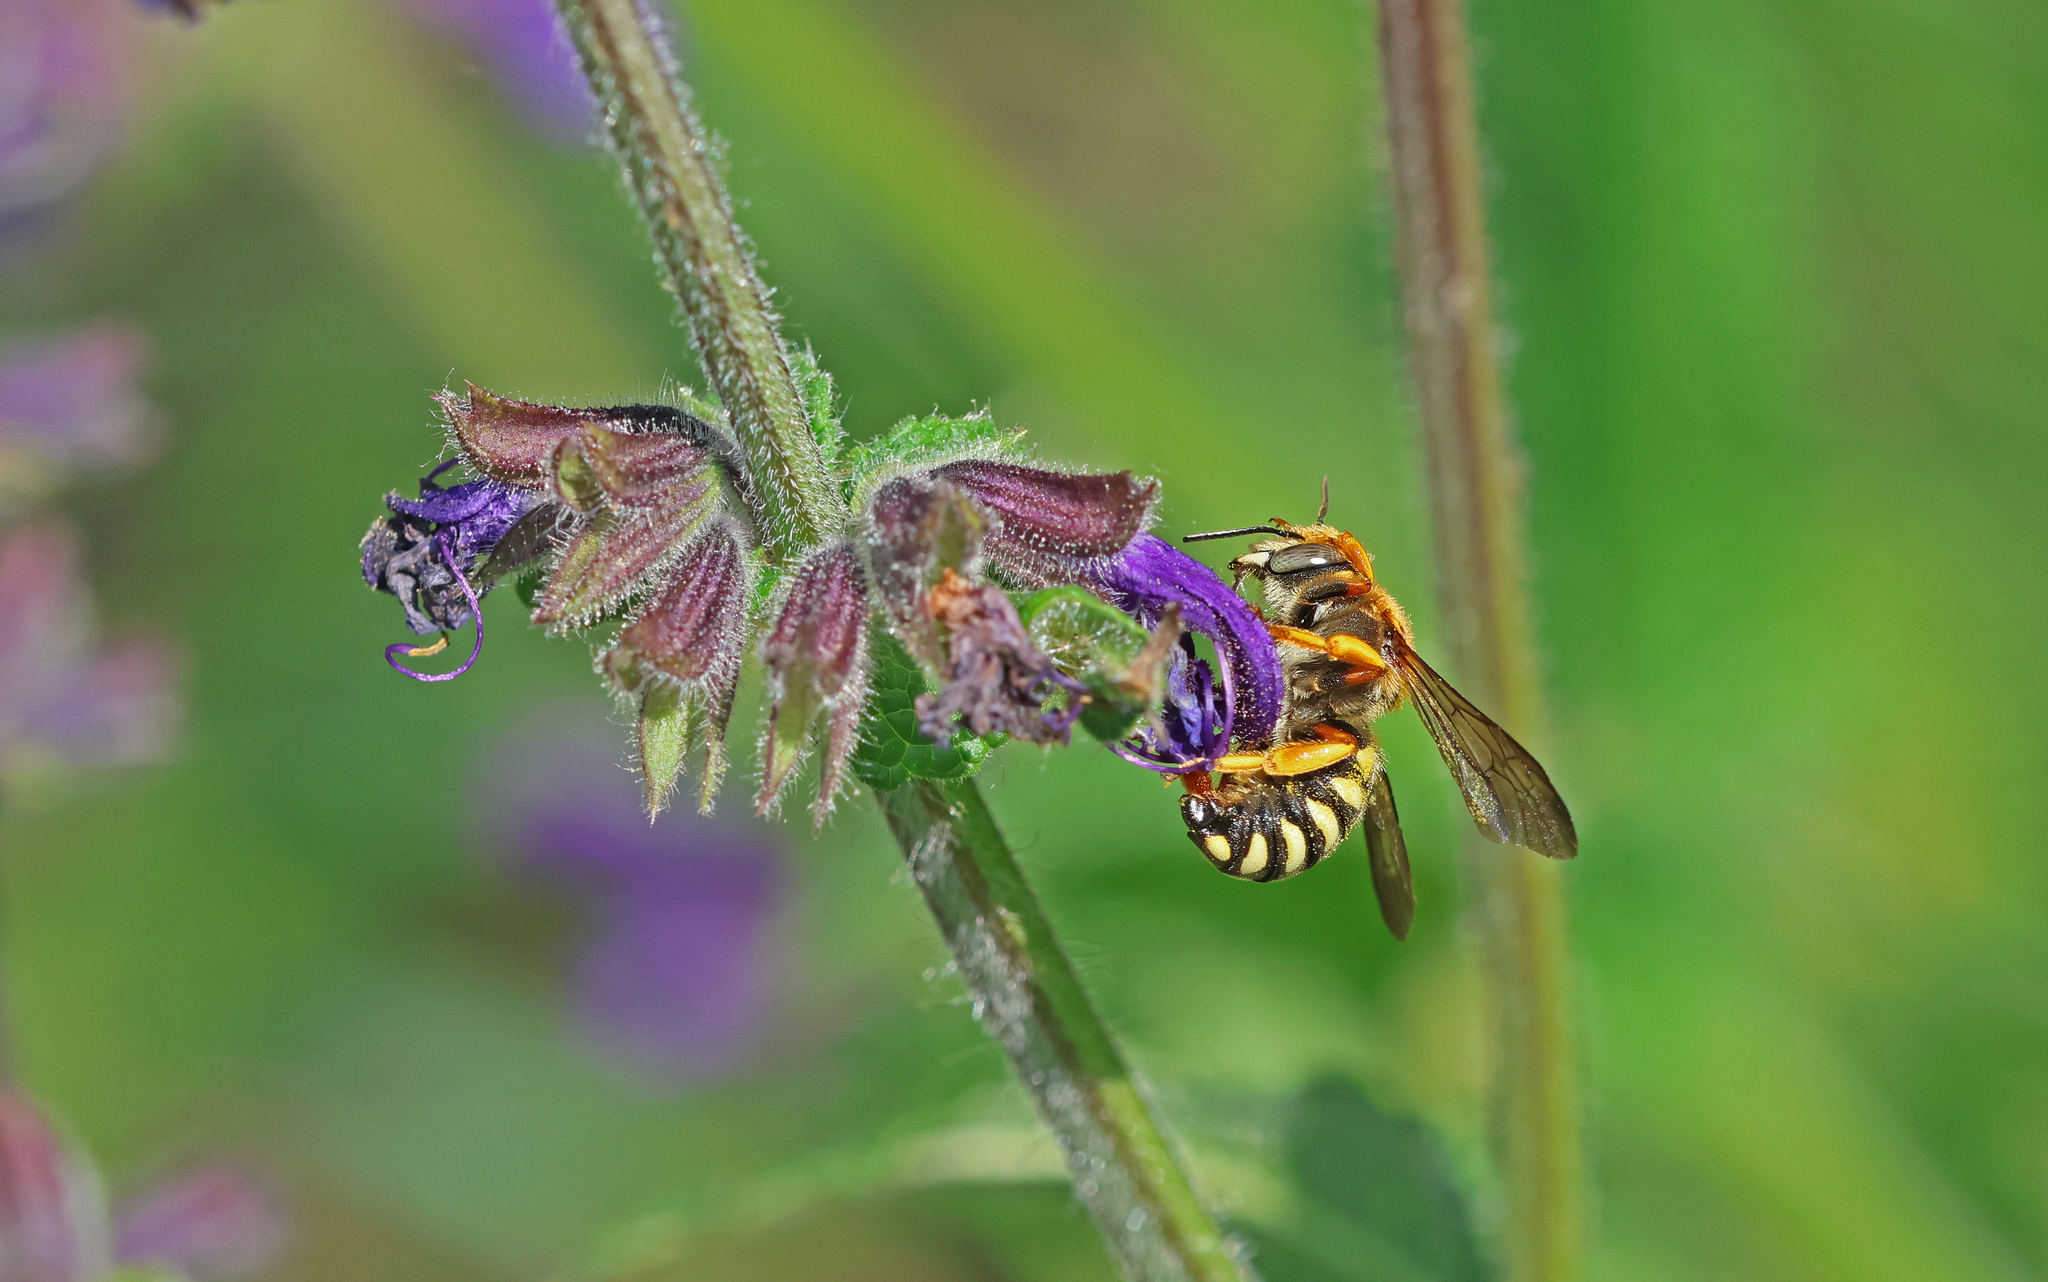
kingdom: Animalia
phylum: Arthropoda
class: Insecta
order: Hymenoptera
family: Megachilidae
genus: Rhodanthidium
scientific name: Rhodanthidium septemdentatum
